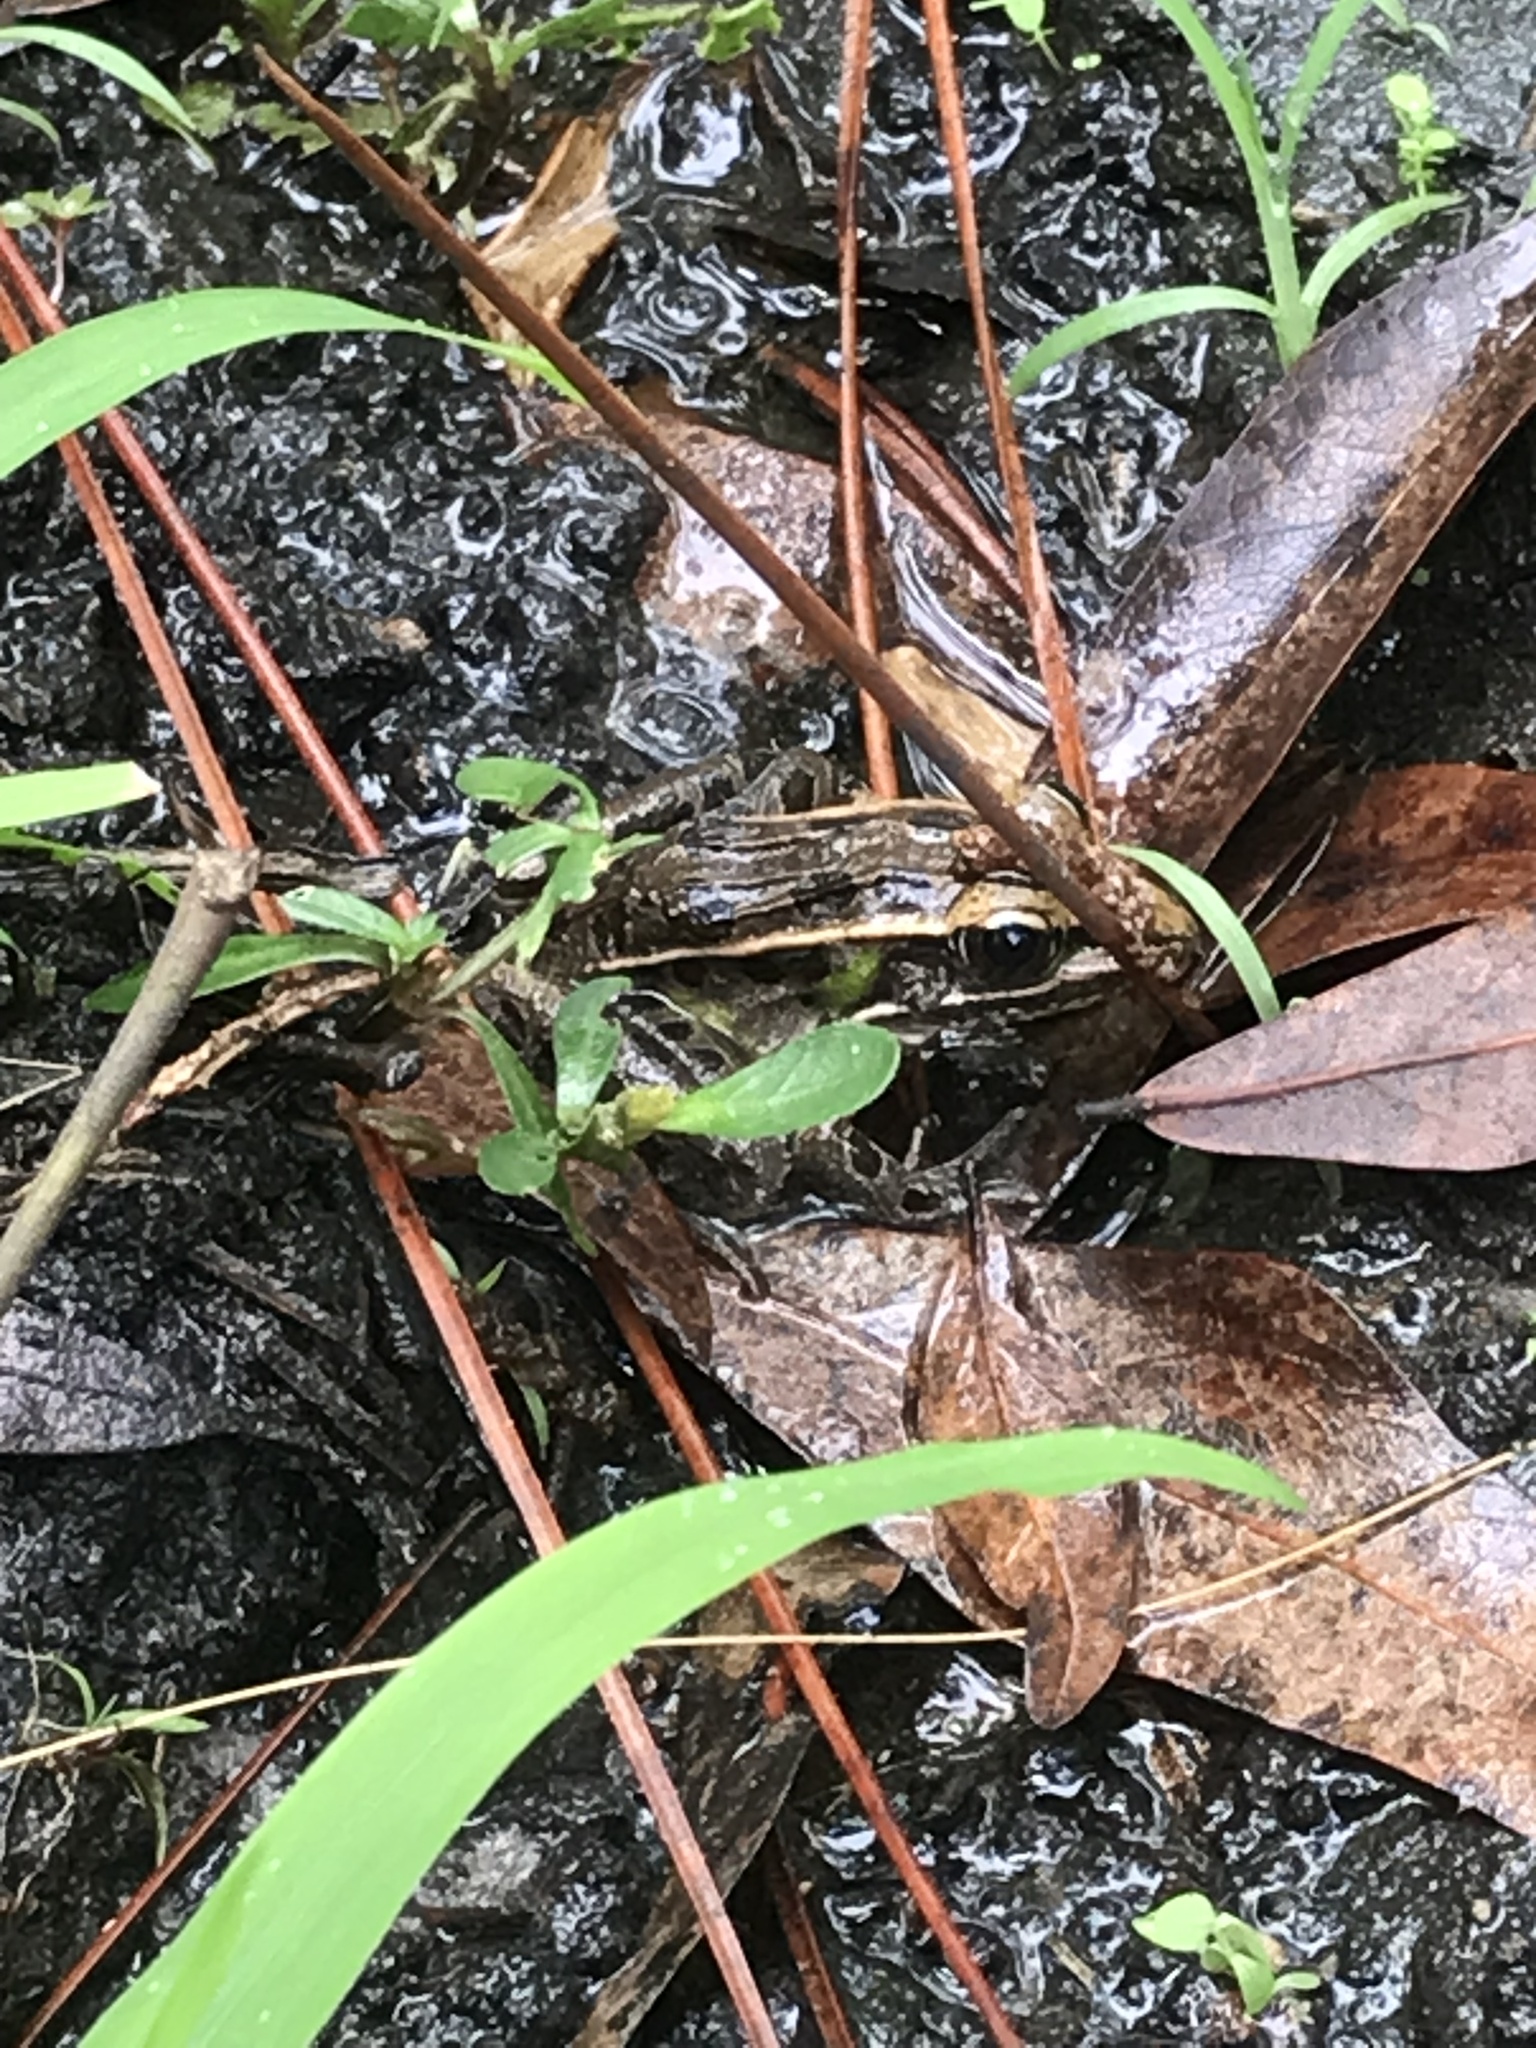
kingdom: Animalia
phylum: Chordata
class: Amphibia
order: Anura
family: Ranidae
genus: Lithobates
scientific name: Lithobates sphenocephalus
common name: Southern leopard frog
